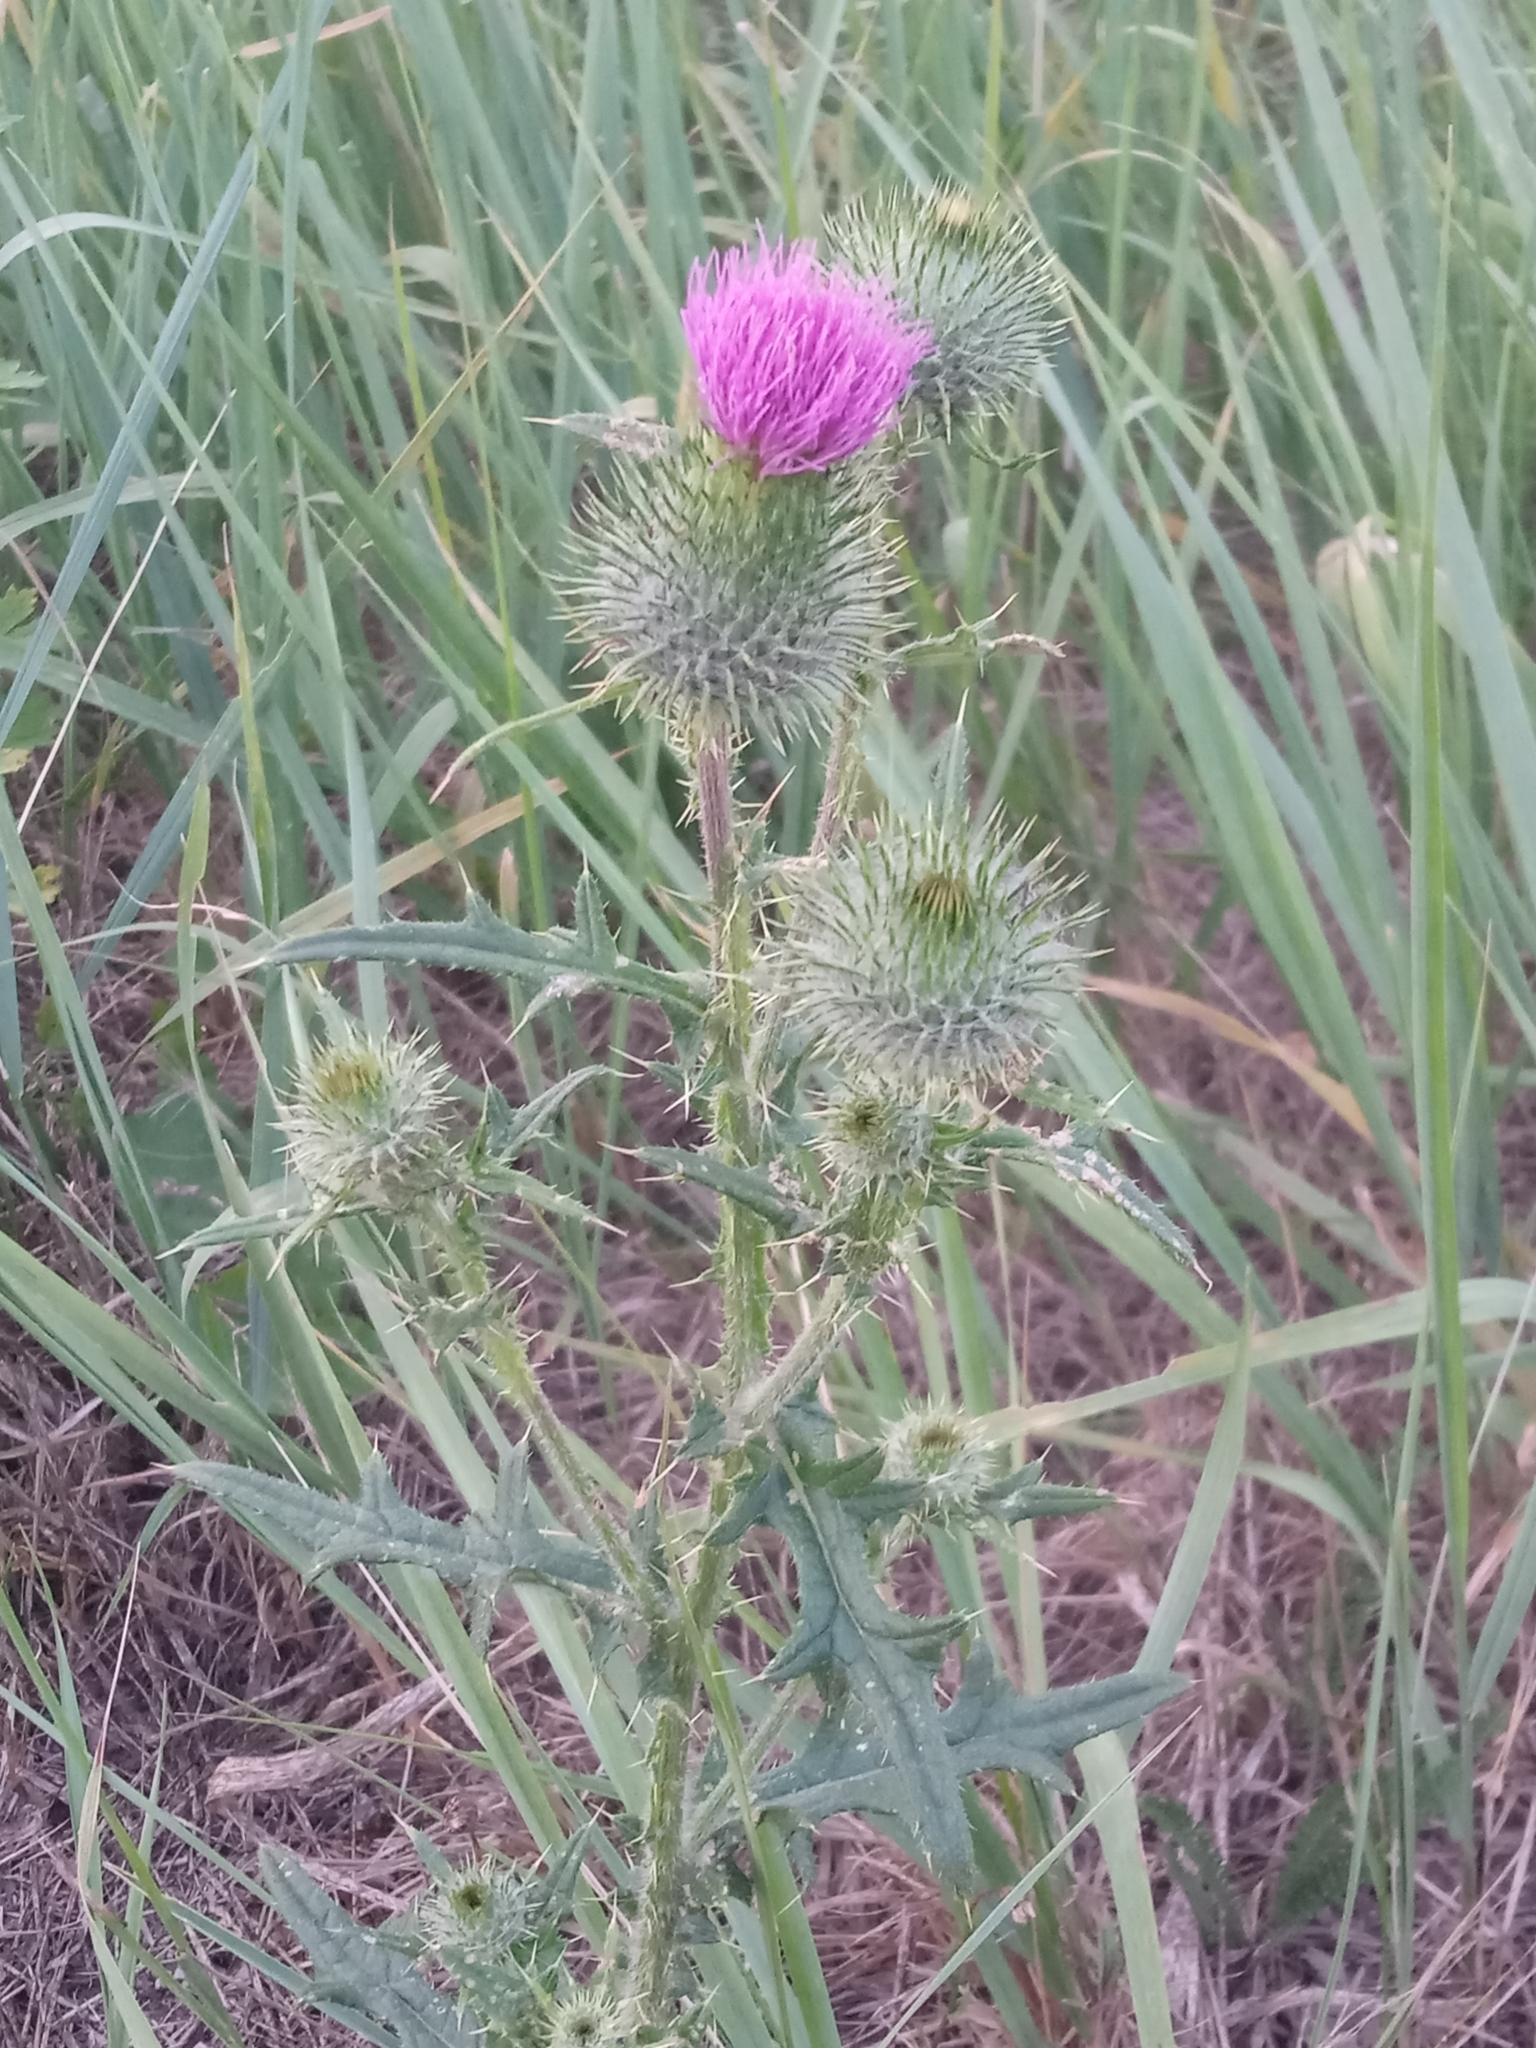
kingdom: Plantae
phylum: Tracheophyta
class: Magnoliopsida
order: Asterales
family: Asteraceae
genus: Cirsium
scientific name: Cirsium vulgare
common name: Bull thistle
